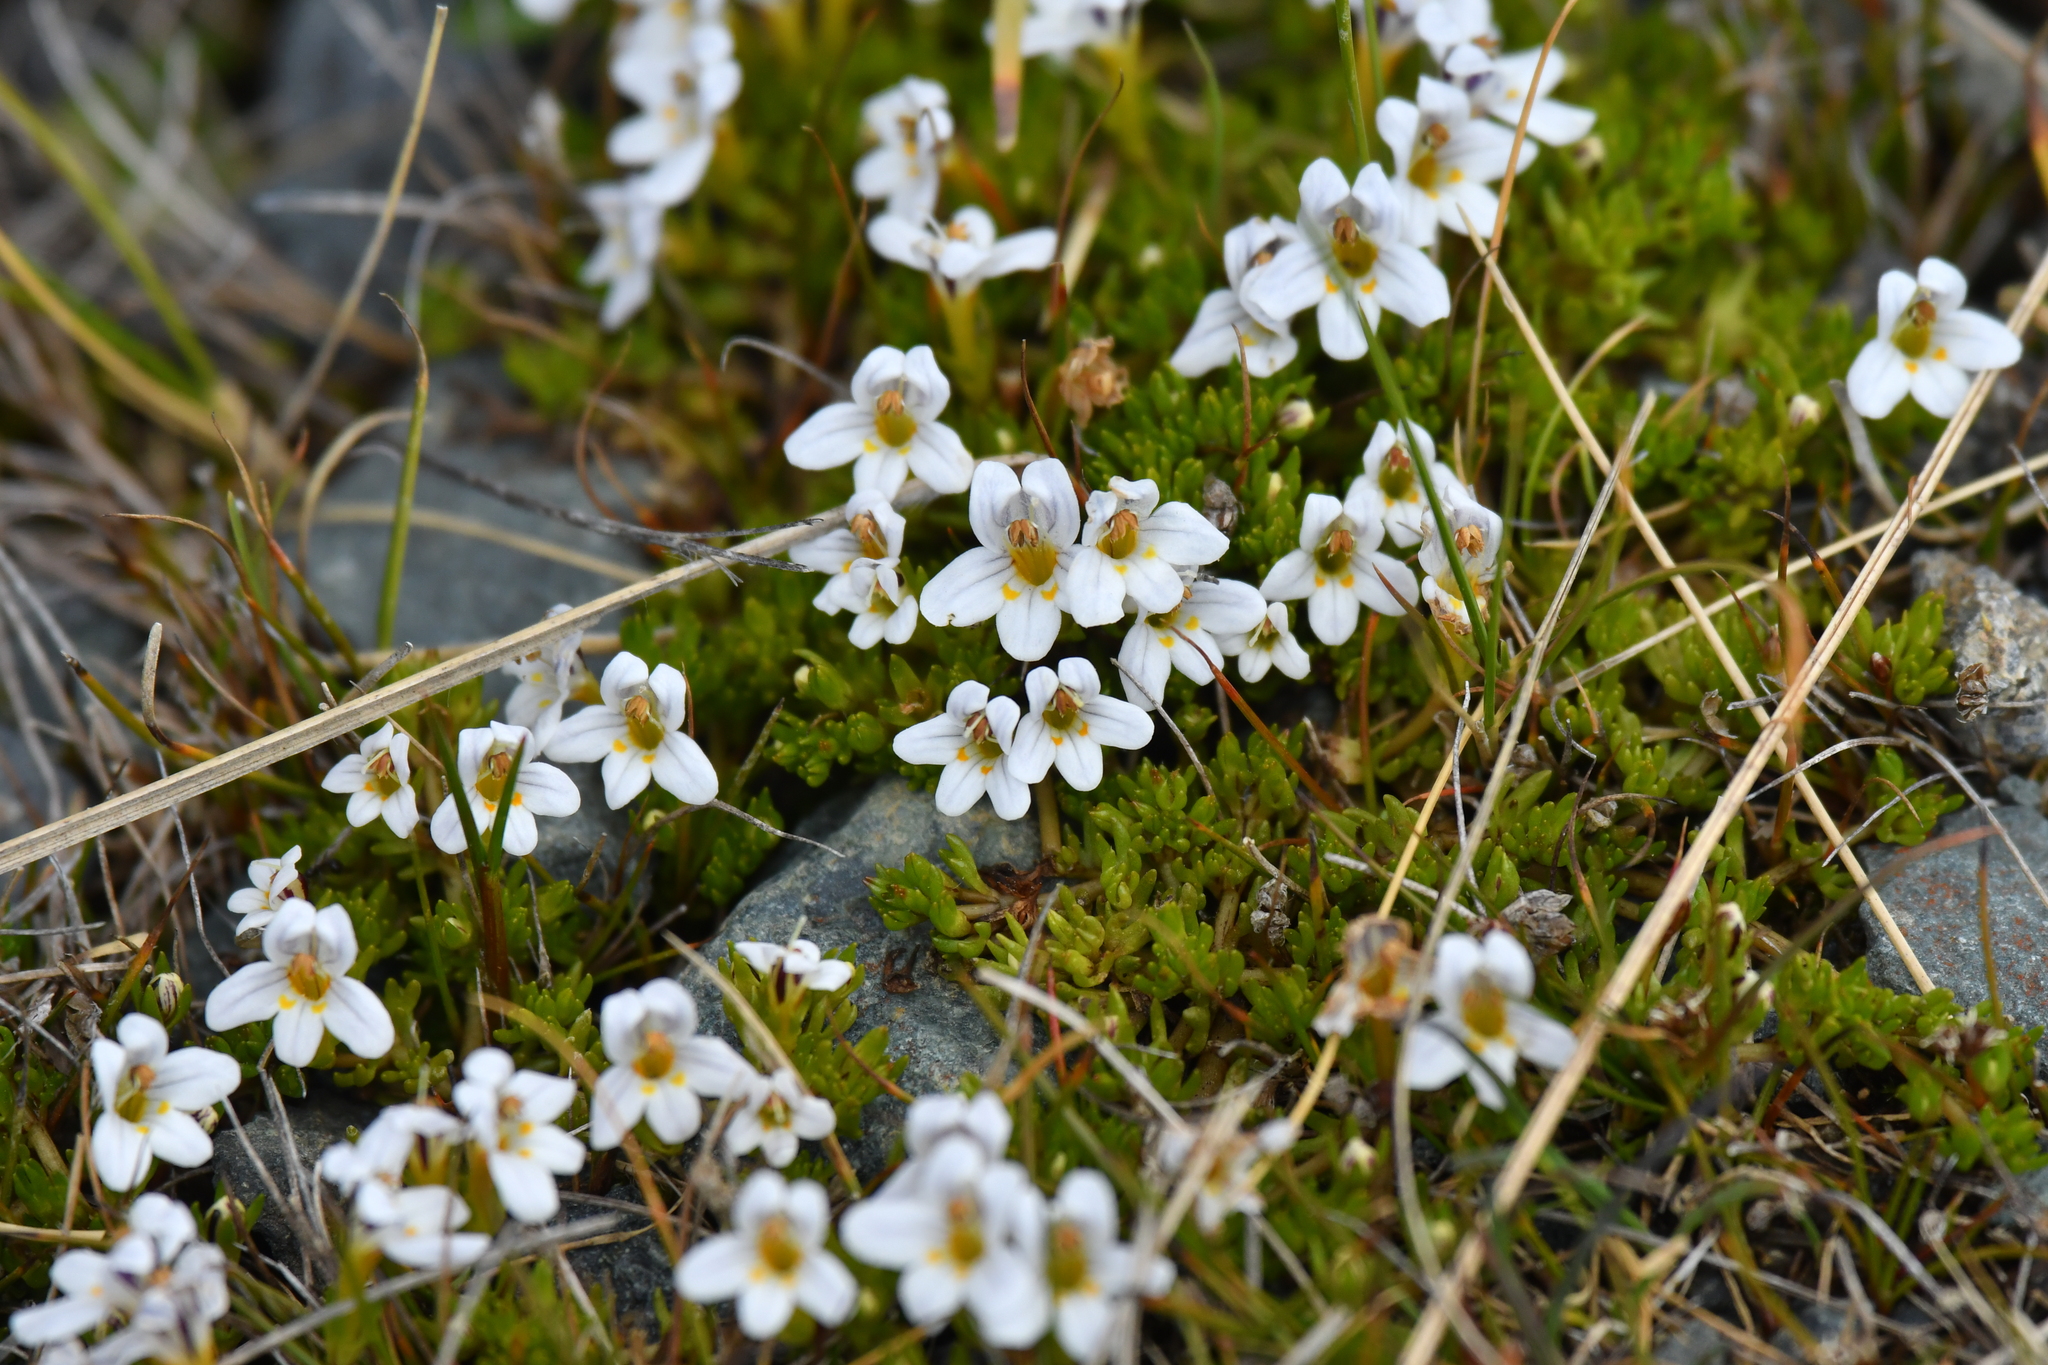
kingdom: Plantae
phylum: Tracheophyta
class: Magnoliopsida
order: Lamiales
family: Orobanchaceae
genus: Euphrasia
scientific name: Euphrasia dyeri
